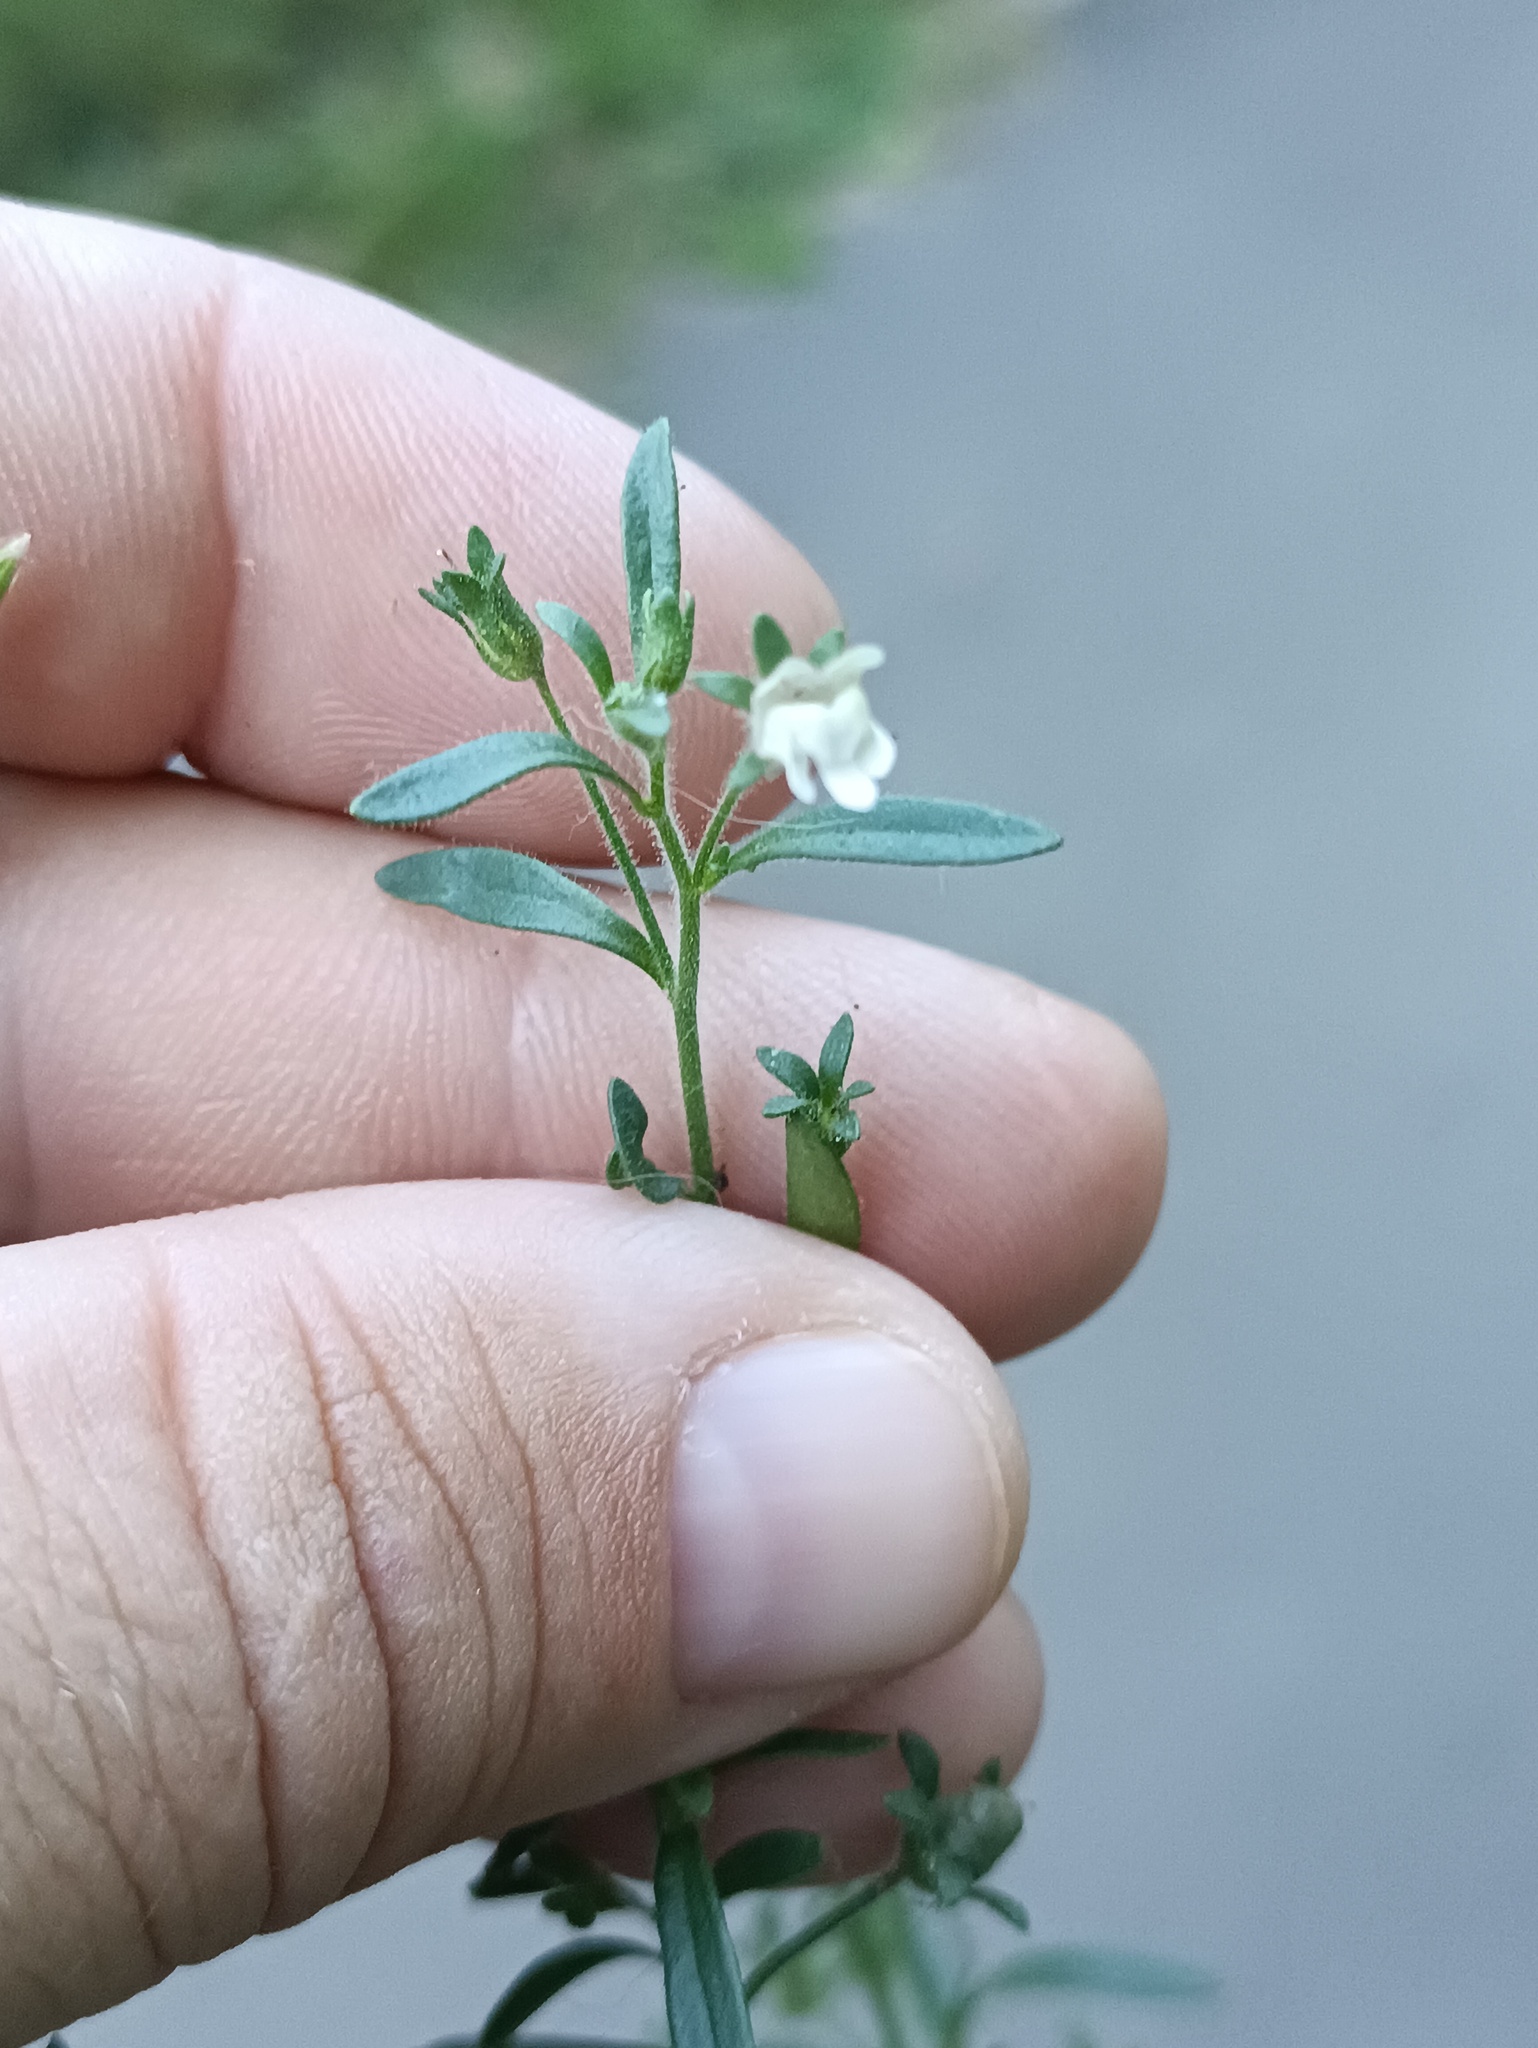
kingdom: Plantae
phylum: Tracheophyta
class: Magnoliopsida
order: Lamiales
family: Plantaginaceae
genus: Chaenorhinum
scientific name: Chaenorhinum minus
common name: Dwarf snapdragon
